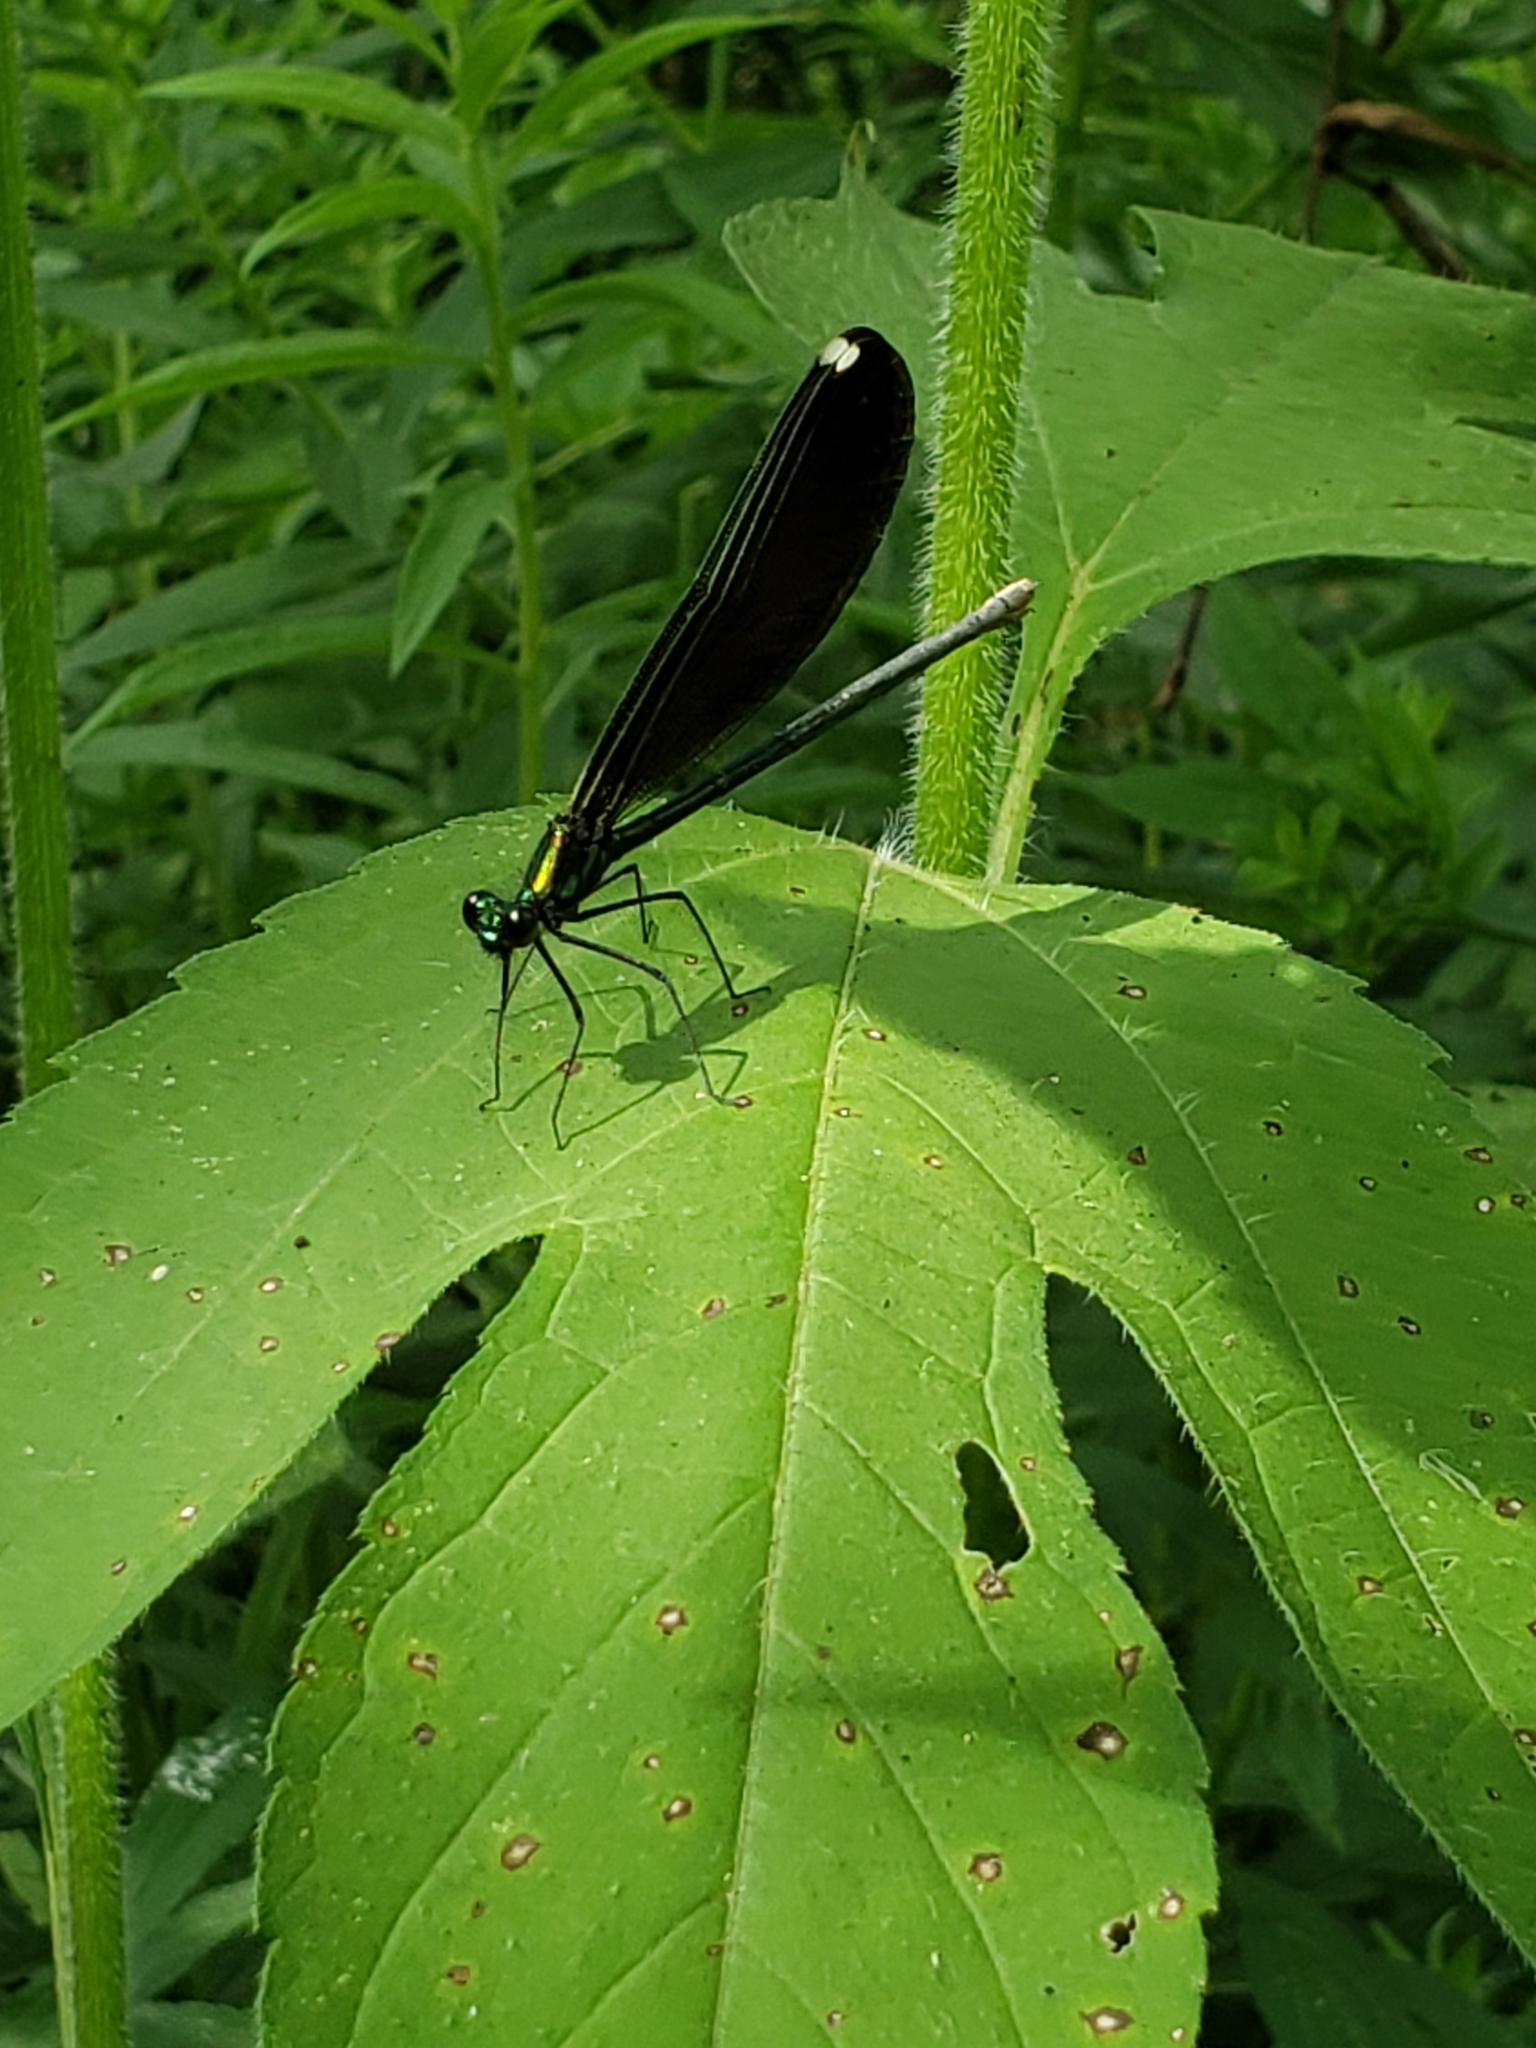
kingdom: Animalia
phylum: Arthropoda
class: Insecta
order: Odonata
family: Calopterygidae
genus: Calopteryx
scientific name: Calopteryx maculata
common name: Ebony jewelwing
